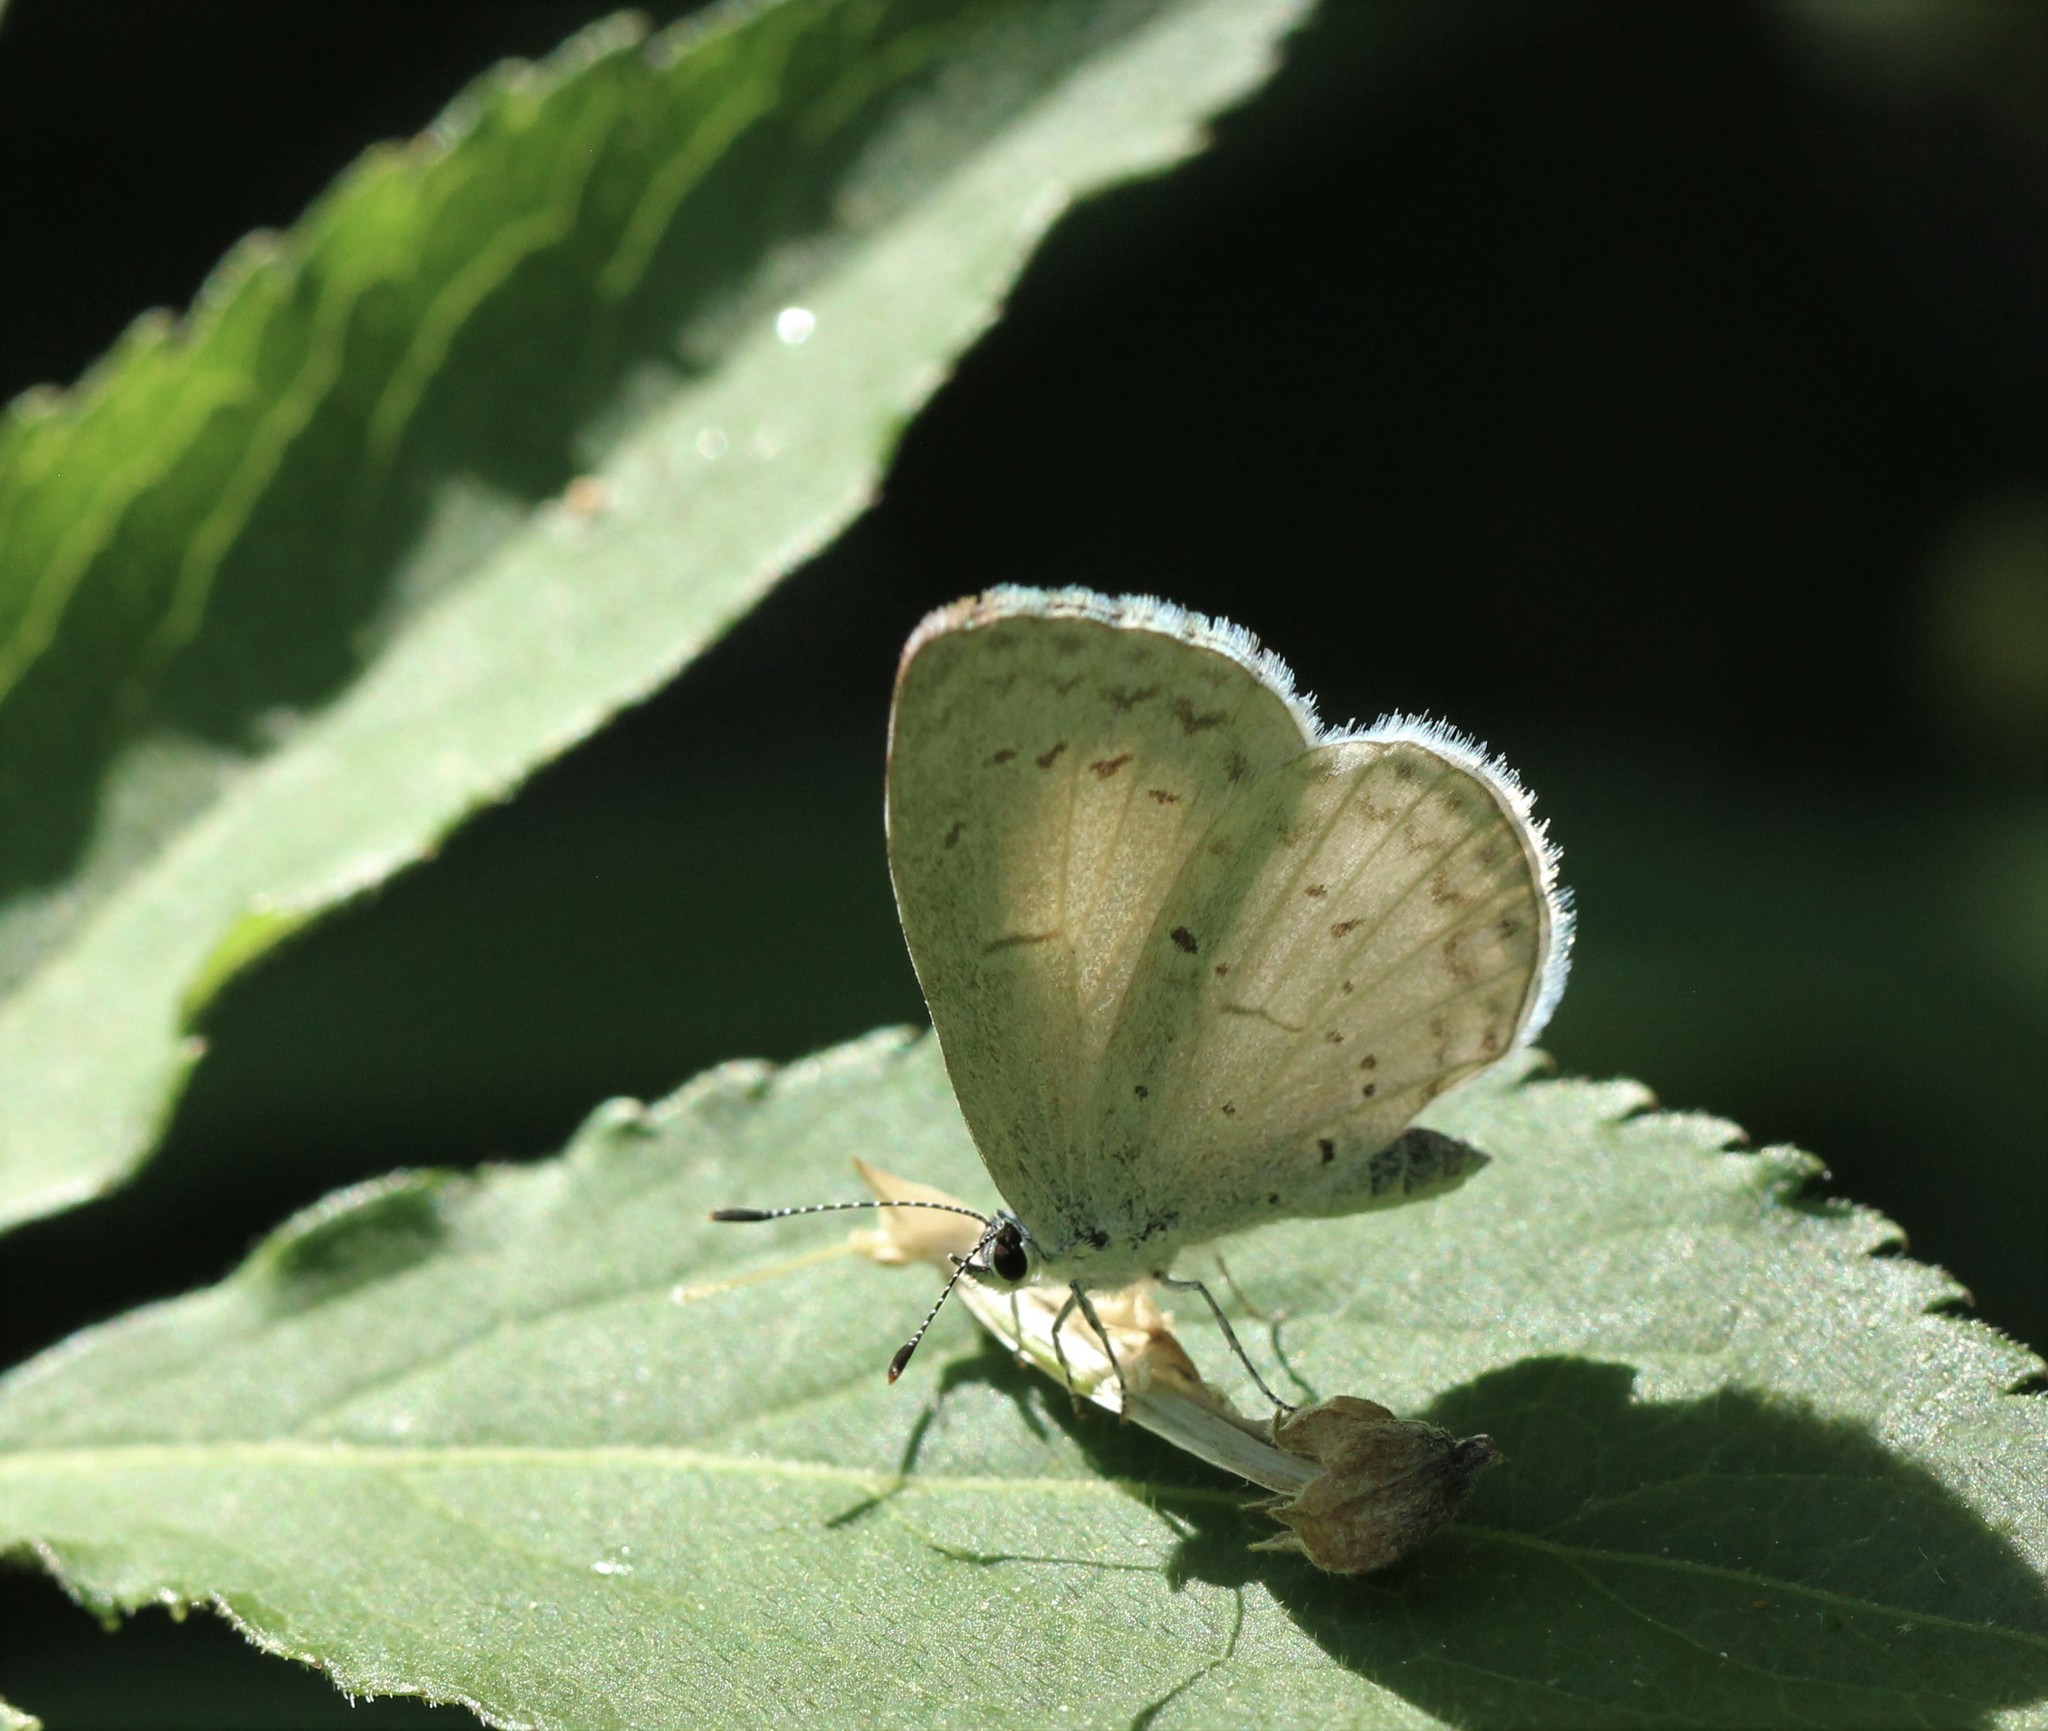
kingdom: Animalia
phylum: Arthropoda
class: Insecta
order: Lepidoptera
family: Lycaenidae
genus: Cyaniris
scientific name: Cyaniris neglecta
